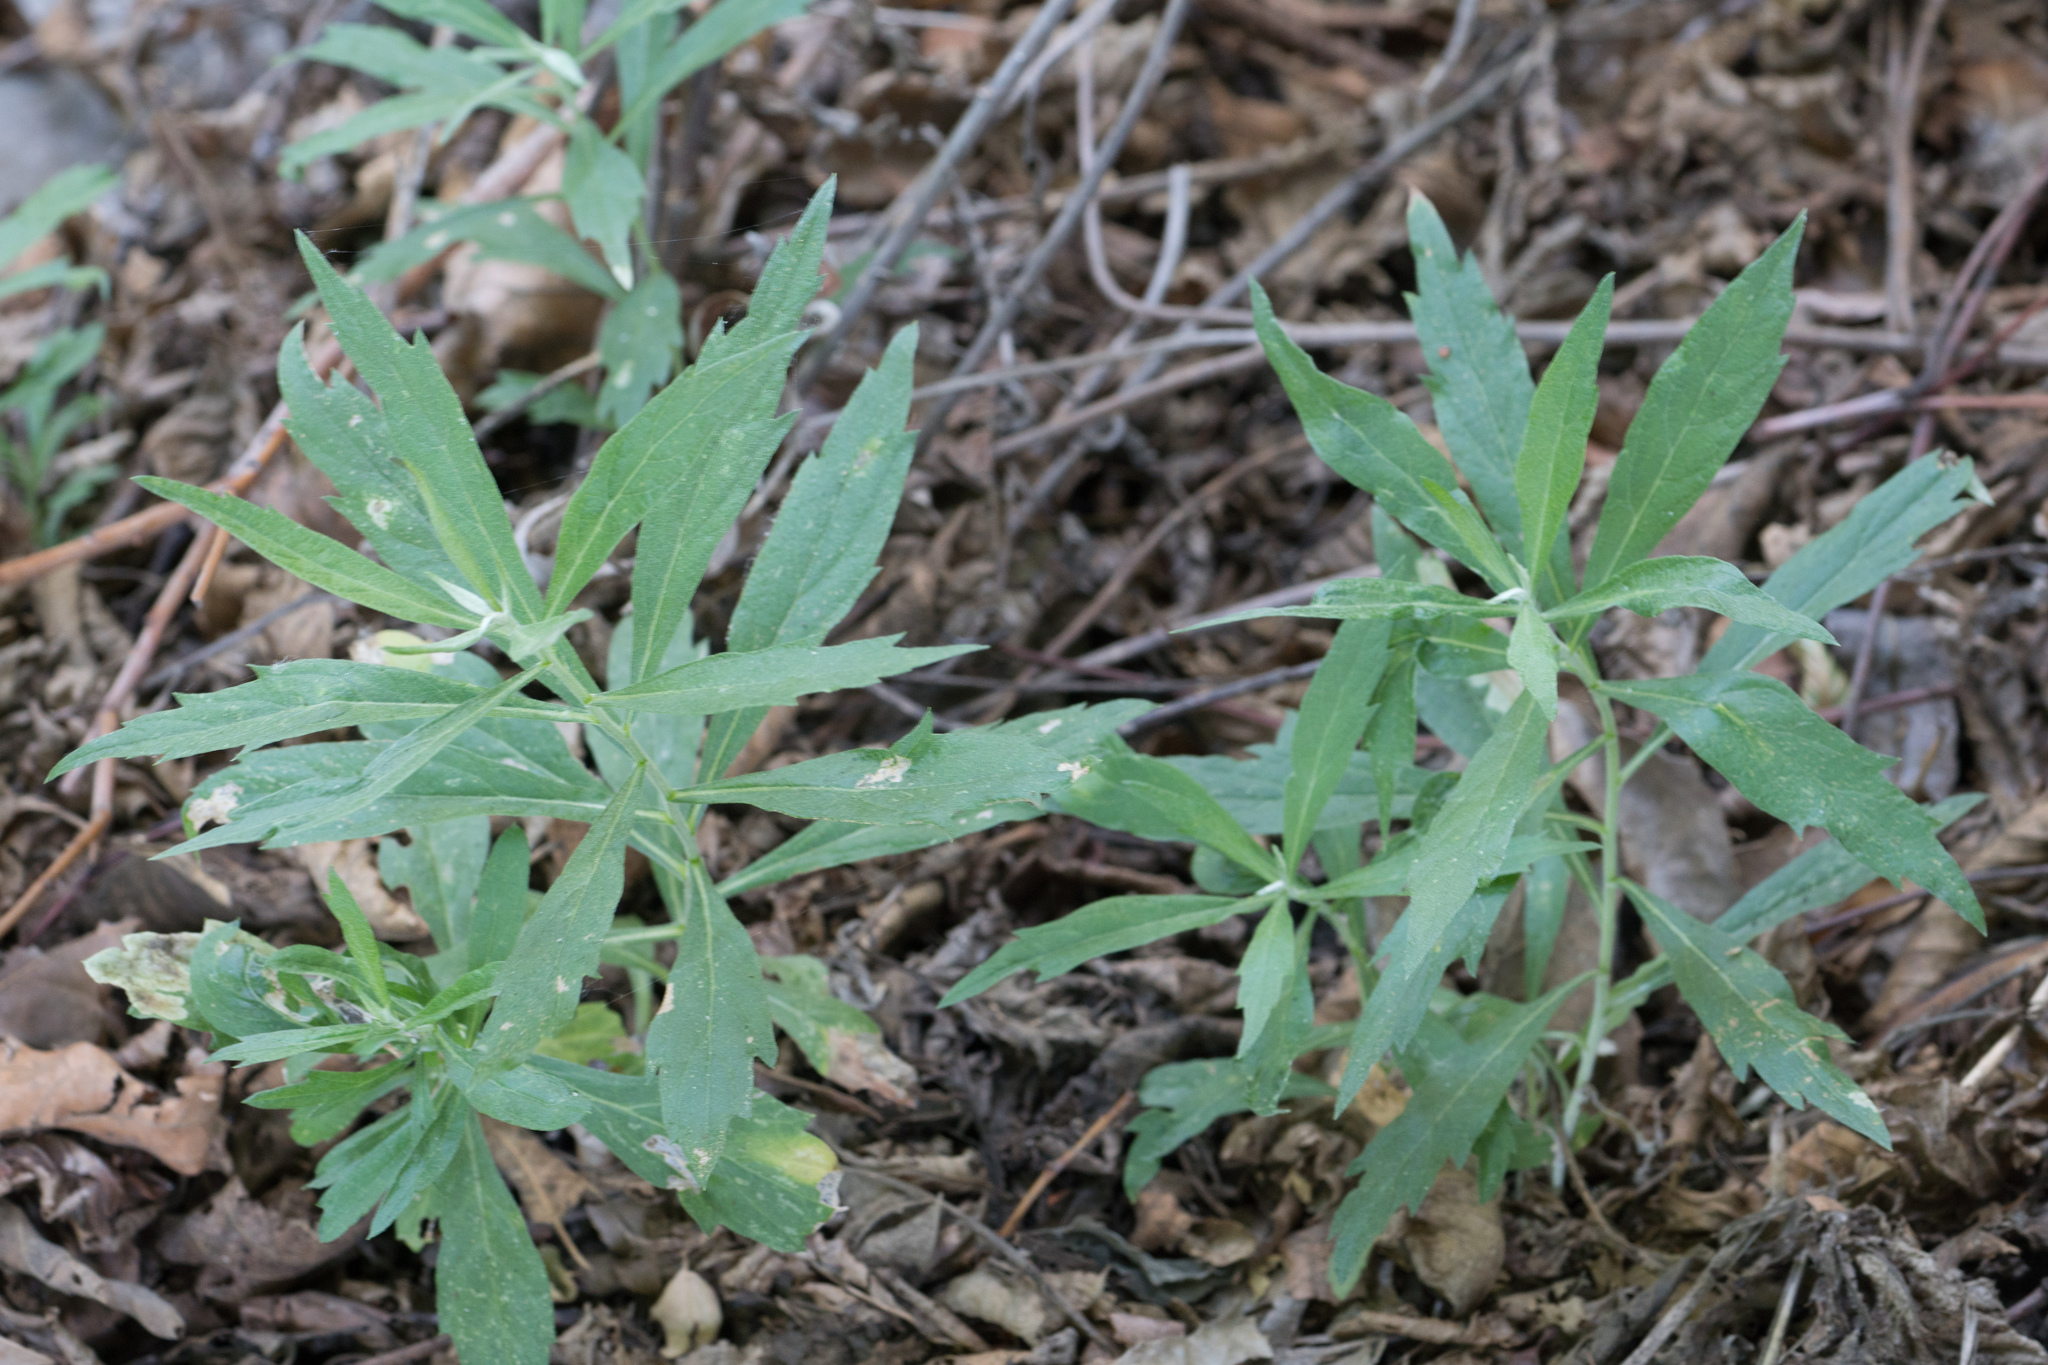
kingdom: Plantae
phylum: Tracheophyta
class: Magnoliopsida
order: Asterales
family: Asteraceae
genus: Artemisia
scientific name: Artemisia douglasiana
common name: Northwest mugwort
